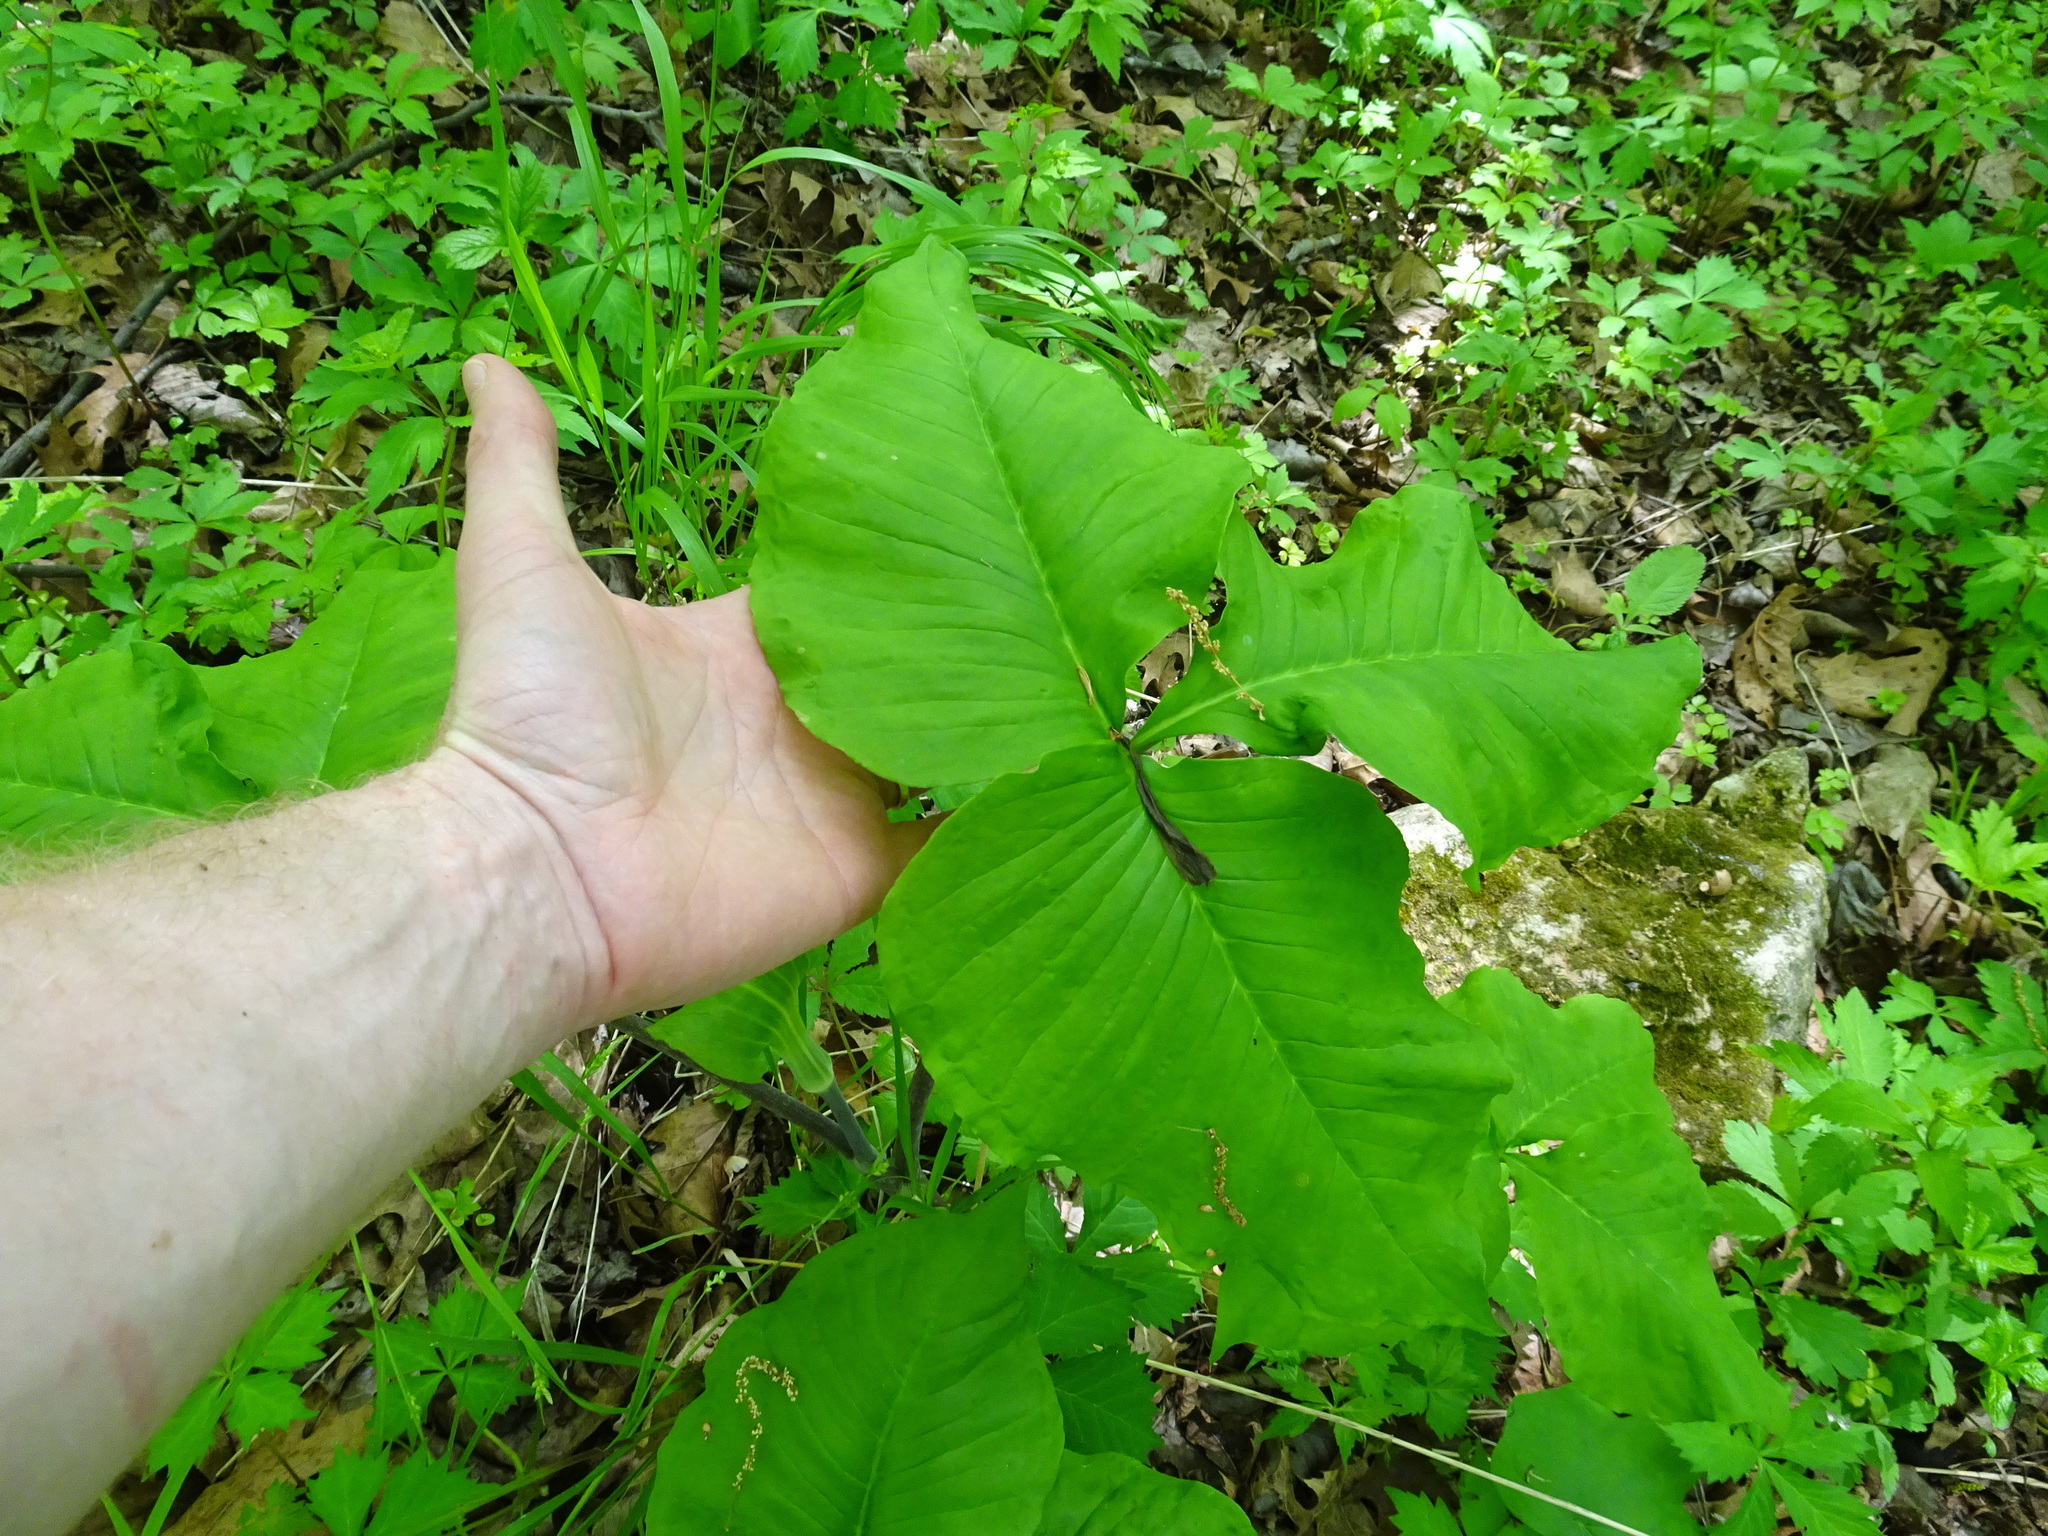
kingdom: Plantae
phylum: Tracheophyta
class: Liliopsida
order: Alismatales
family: Araceae
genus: Arisaema
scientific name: Arisaema triphyllum
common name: Jack-in-the-pulpit
